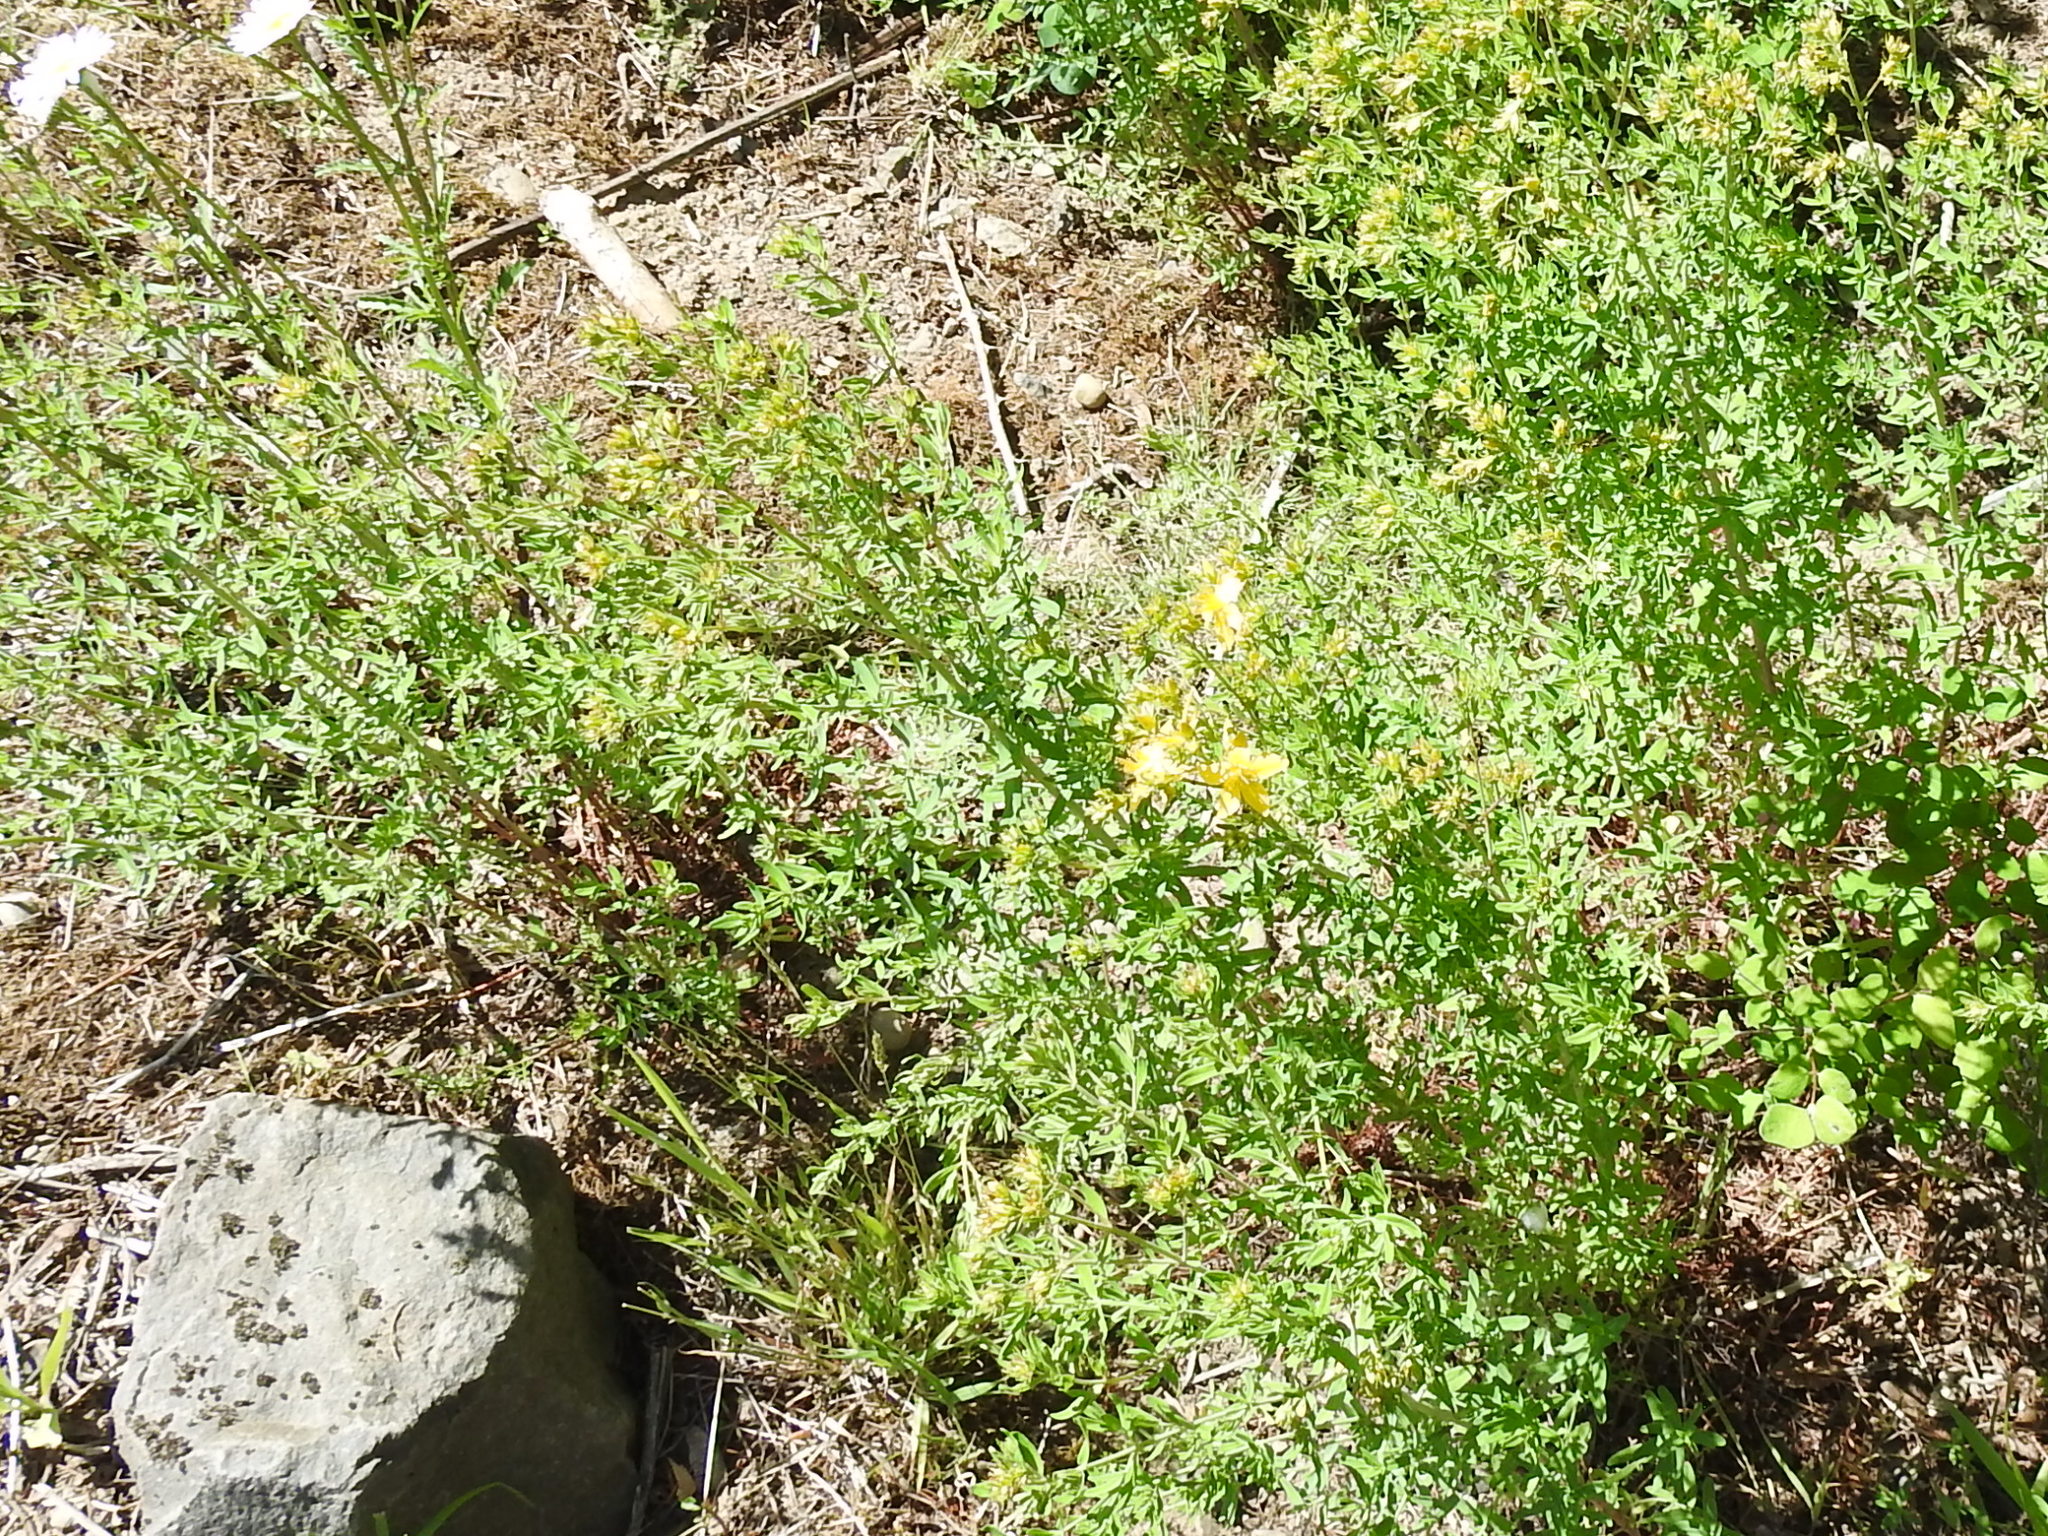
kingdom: Plantae
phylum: Tracheophyta
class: Magnoliopsida
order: Malpighiales
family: Hypericaceae
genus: Hypericum
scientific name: Hypericum perforatum
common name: Common st. johnswort
